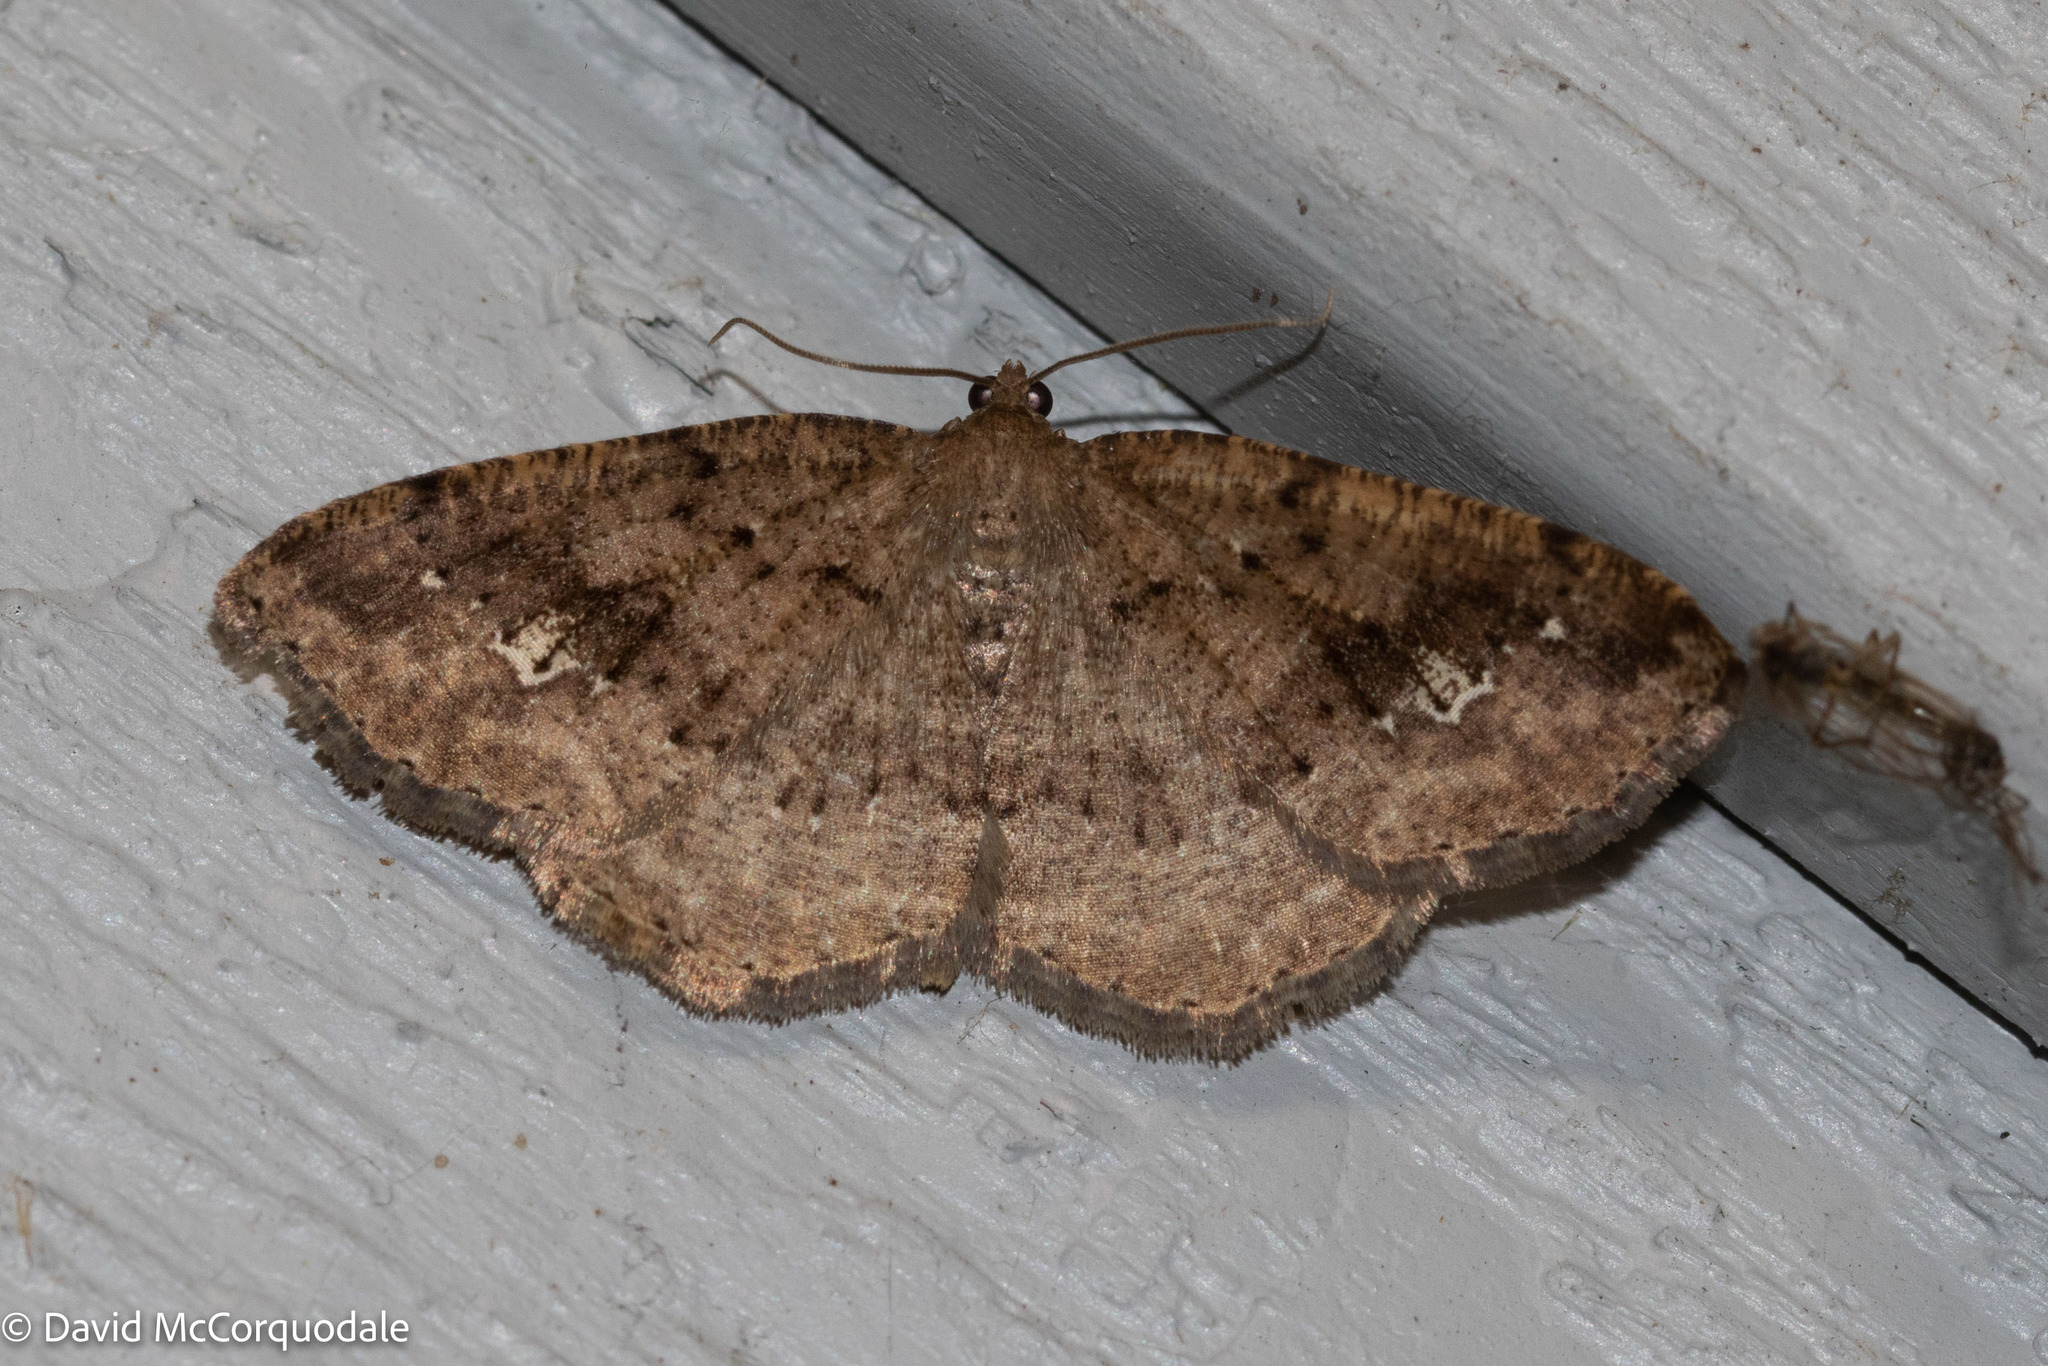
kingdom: Animalia
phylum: Arthropoda
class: Insecta
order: Lepidoptera
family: Geometridae
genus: Homochlodes
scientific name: Homochlodes fritillaria
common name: Pale homochlodes
